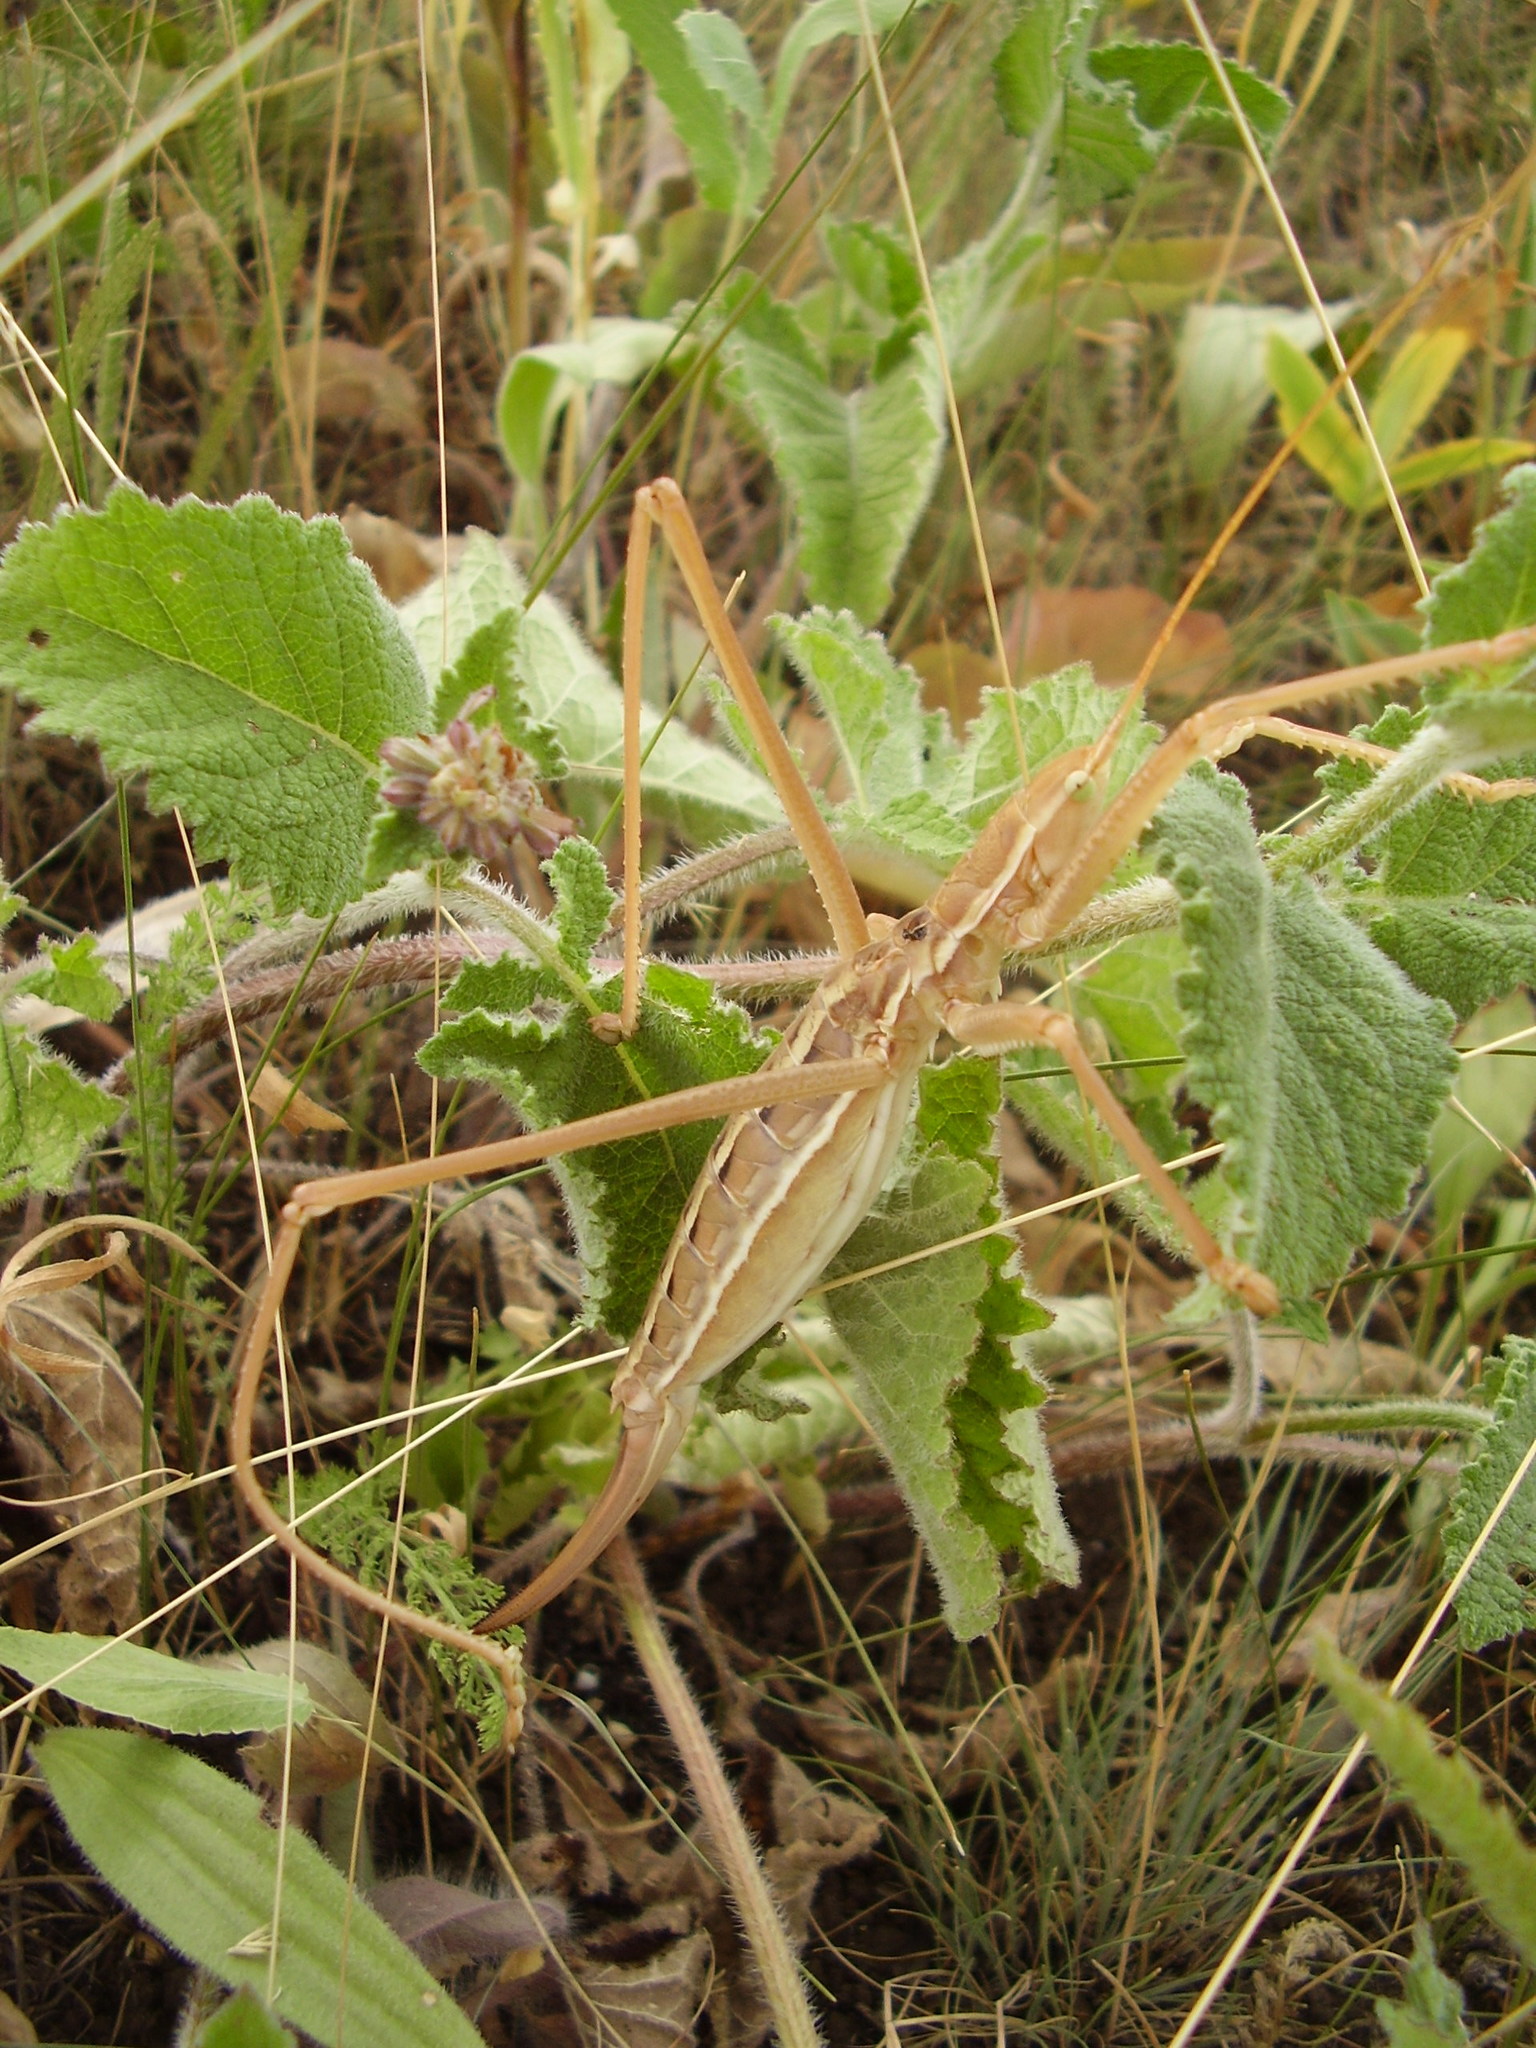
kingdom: Animalia
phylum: Arthropoda
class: Insecta
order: Orthoptera
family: Tettigoniidae
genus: Saga
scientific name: Saga pedo
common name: Common predatory bush-cricket
